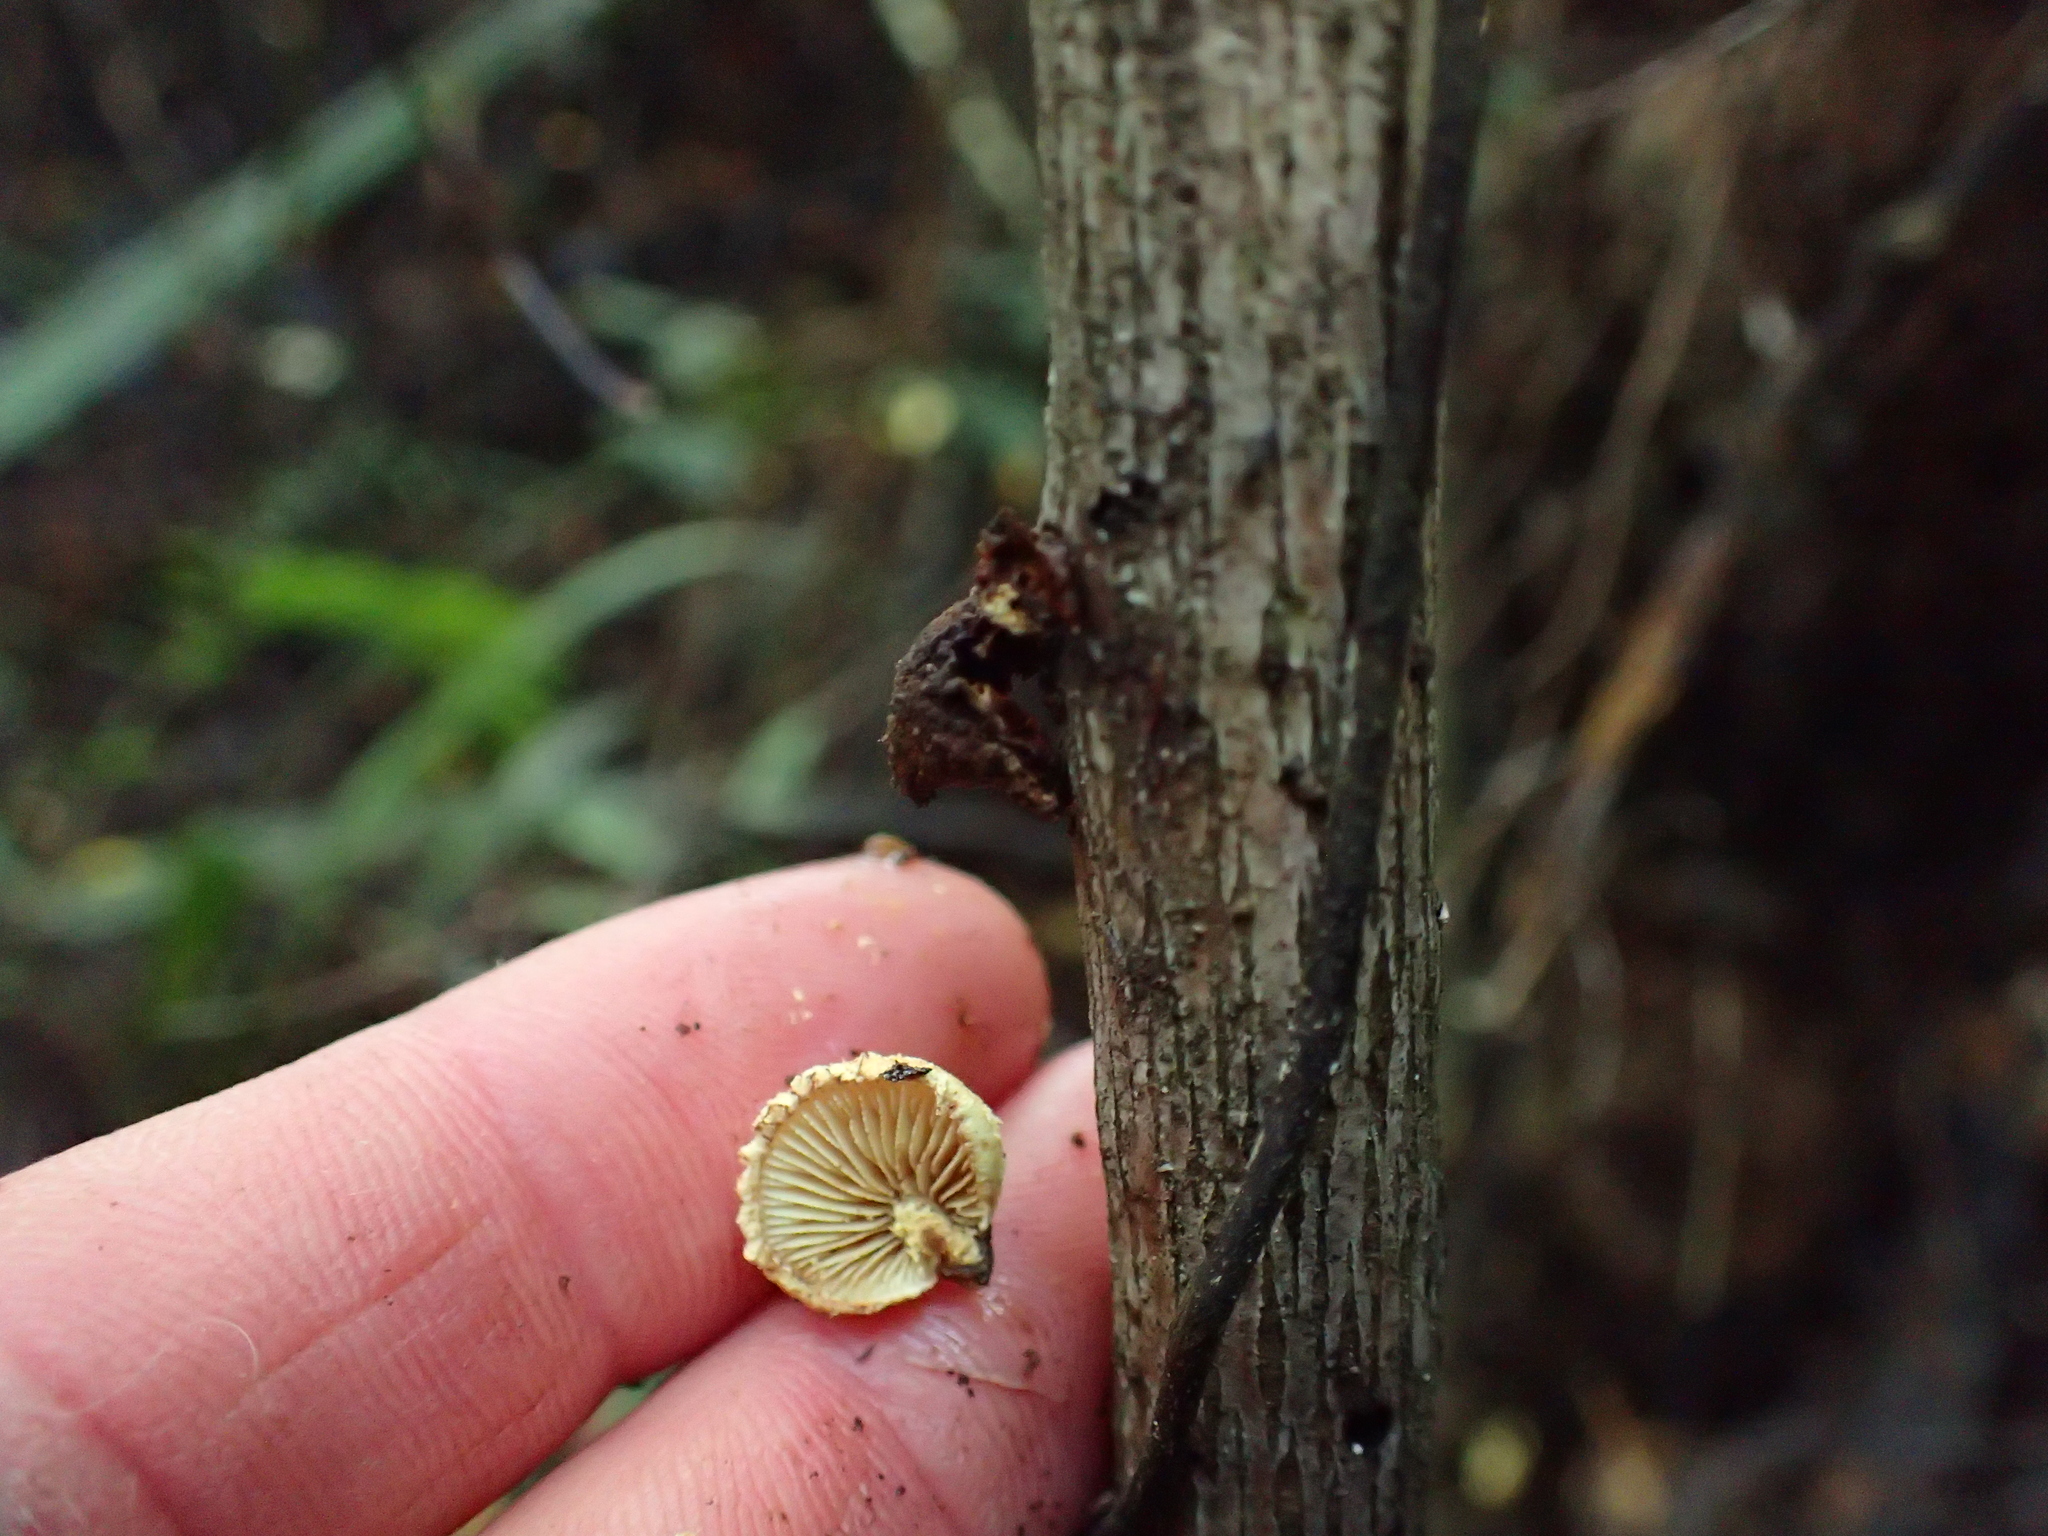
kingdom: Fungi
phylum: Basidiomycota
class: Agaricomycetes
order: Agaricales
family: Crepidotaceae
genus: Pleuroflammula
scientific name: Pleuroflammula praestans
